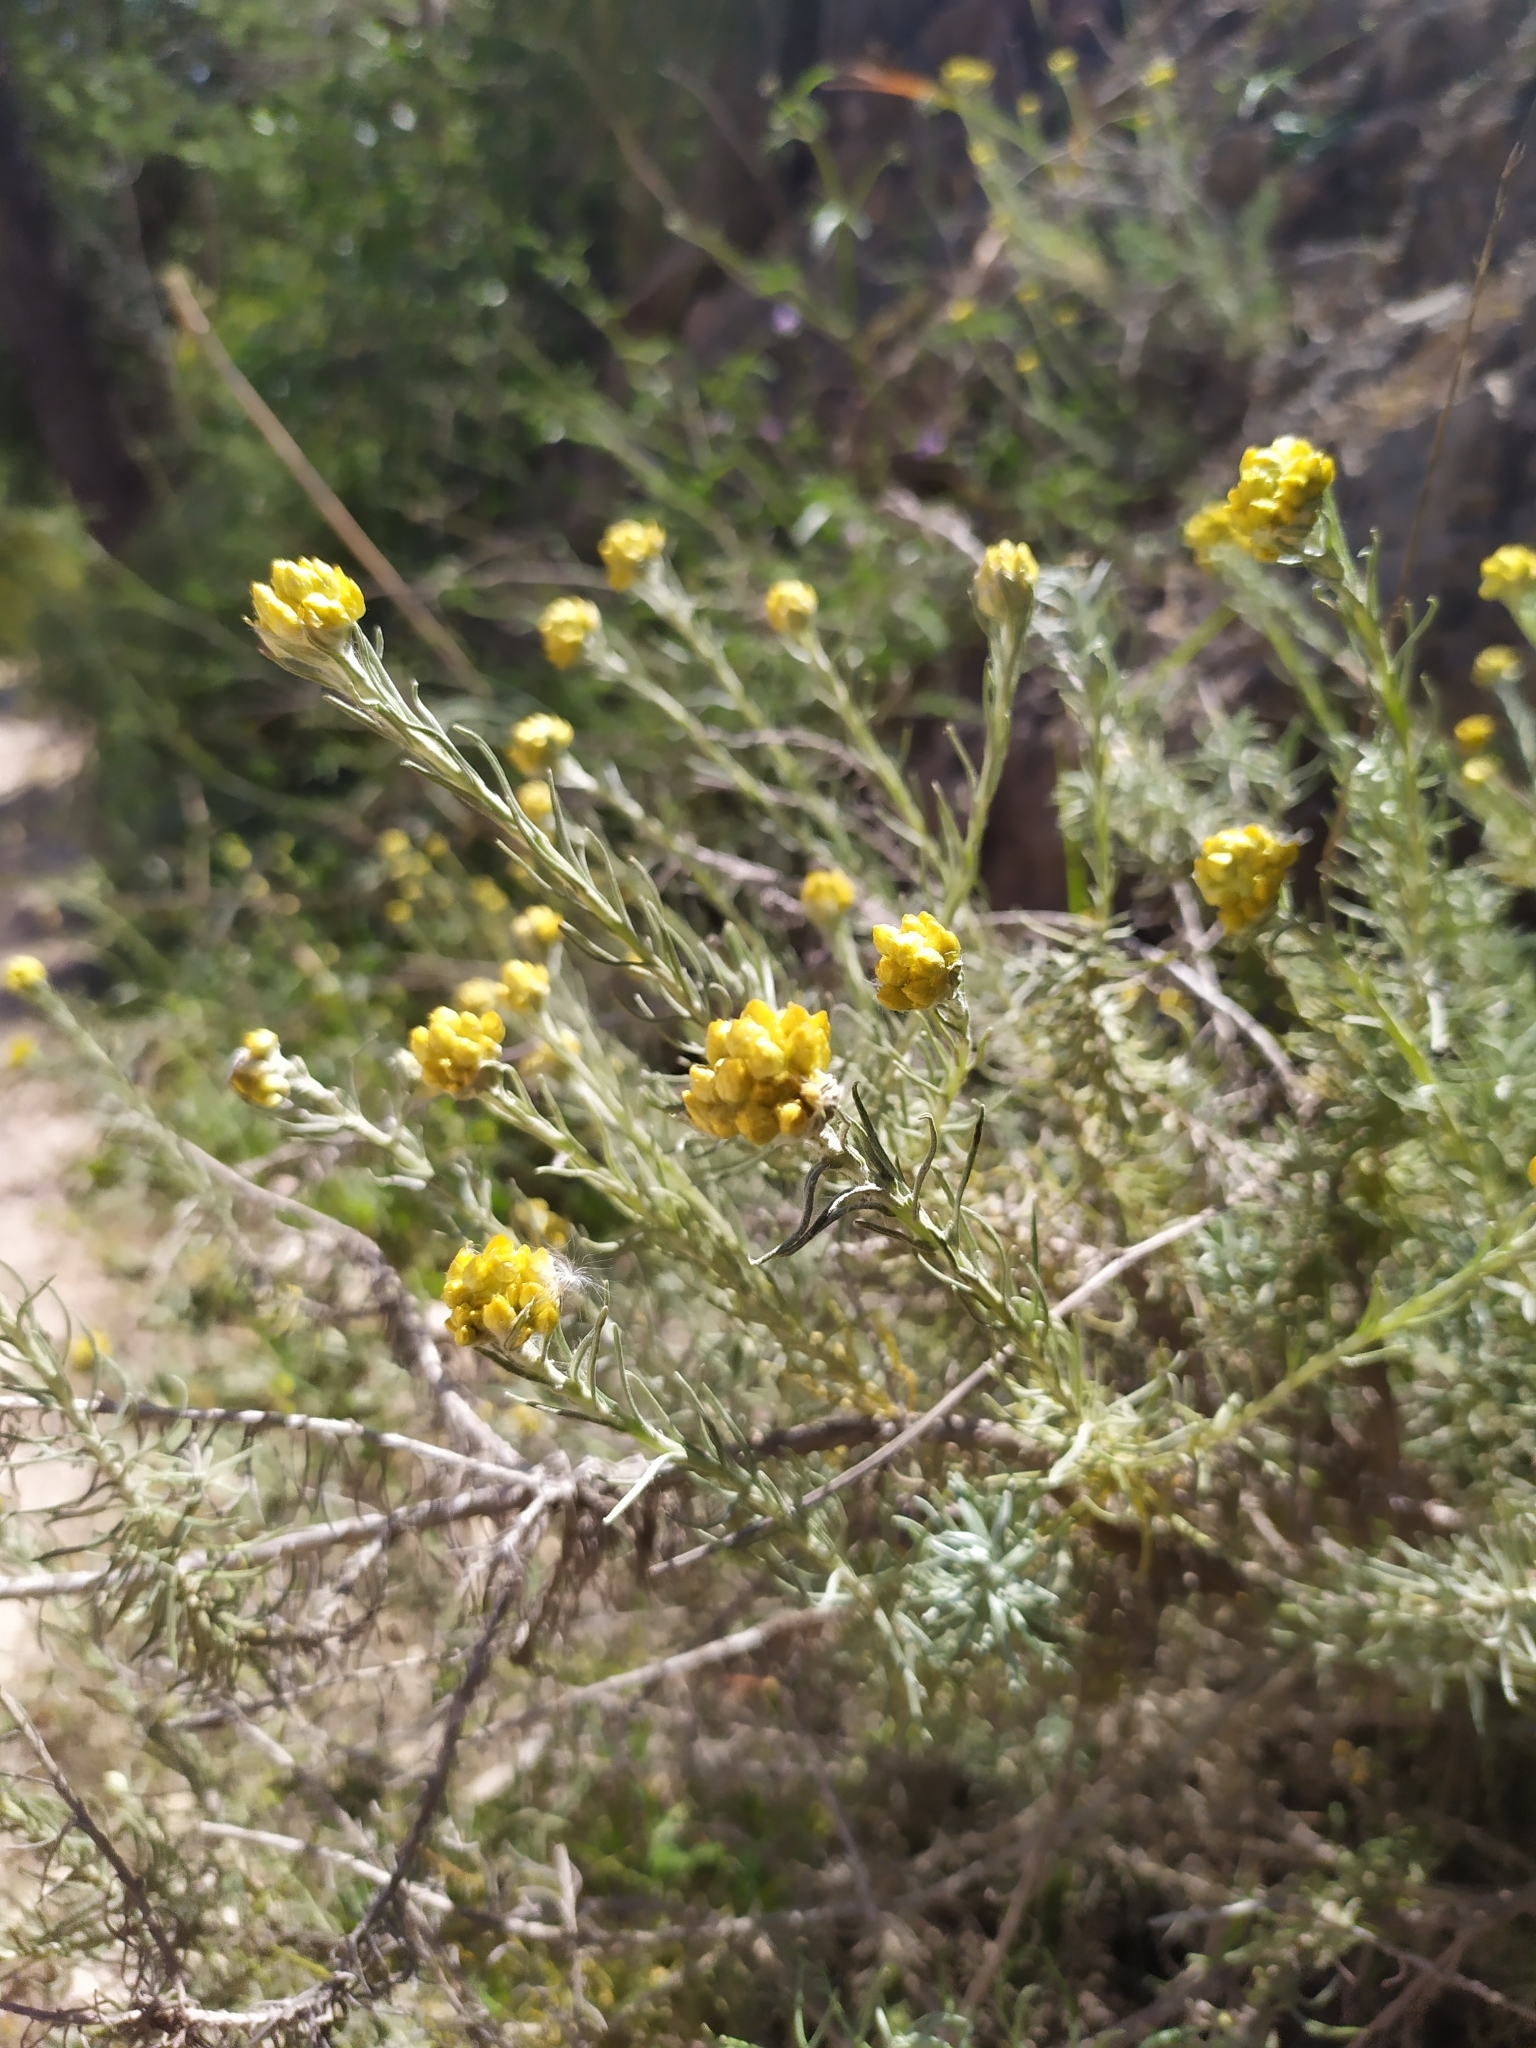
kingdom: Plantae
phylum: Tracheophyta
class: Magnoliopsida
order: Asterales
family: Asteraceae
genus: Helichrysum
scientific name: Helichrysum stoechas
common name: Goldilocks
